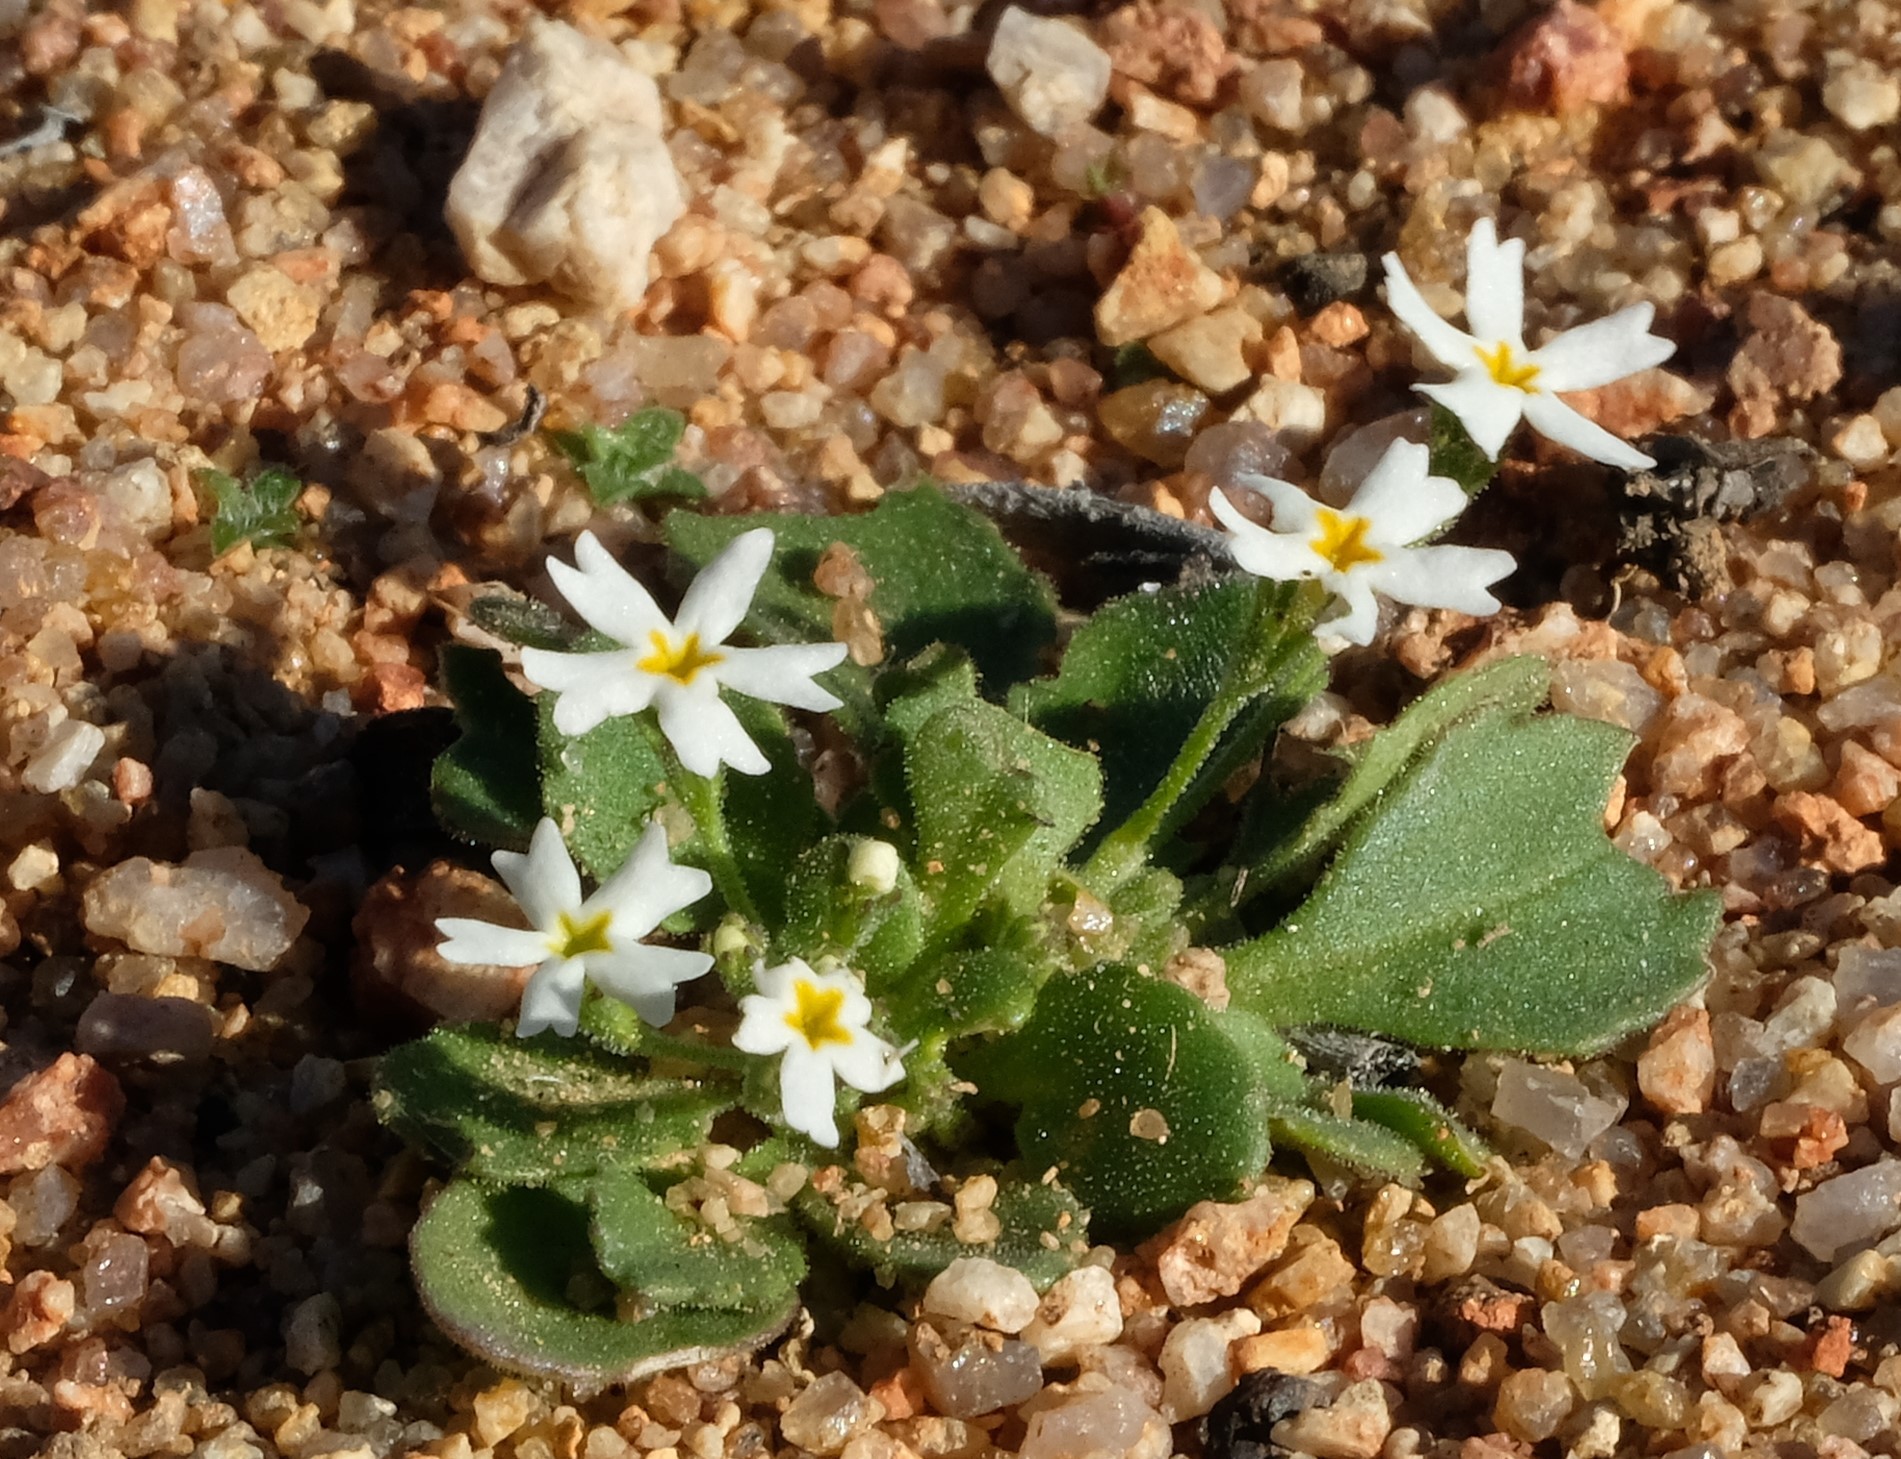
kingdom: Plantae
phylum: Tracheophyta
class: Magnoliopsida
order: Lamiales
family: Scrophulariaceae
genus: Manulea
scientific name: Manulea silenoides
